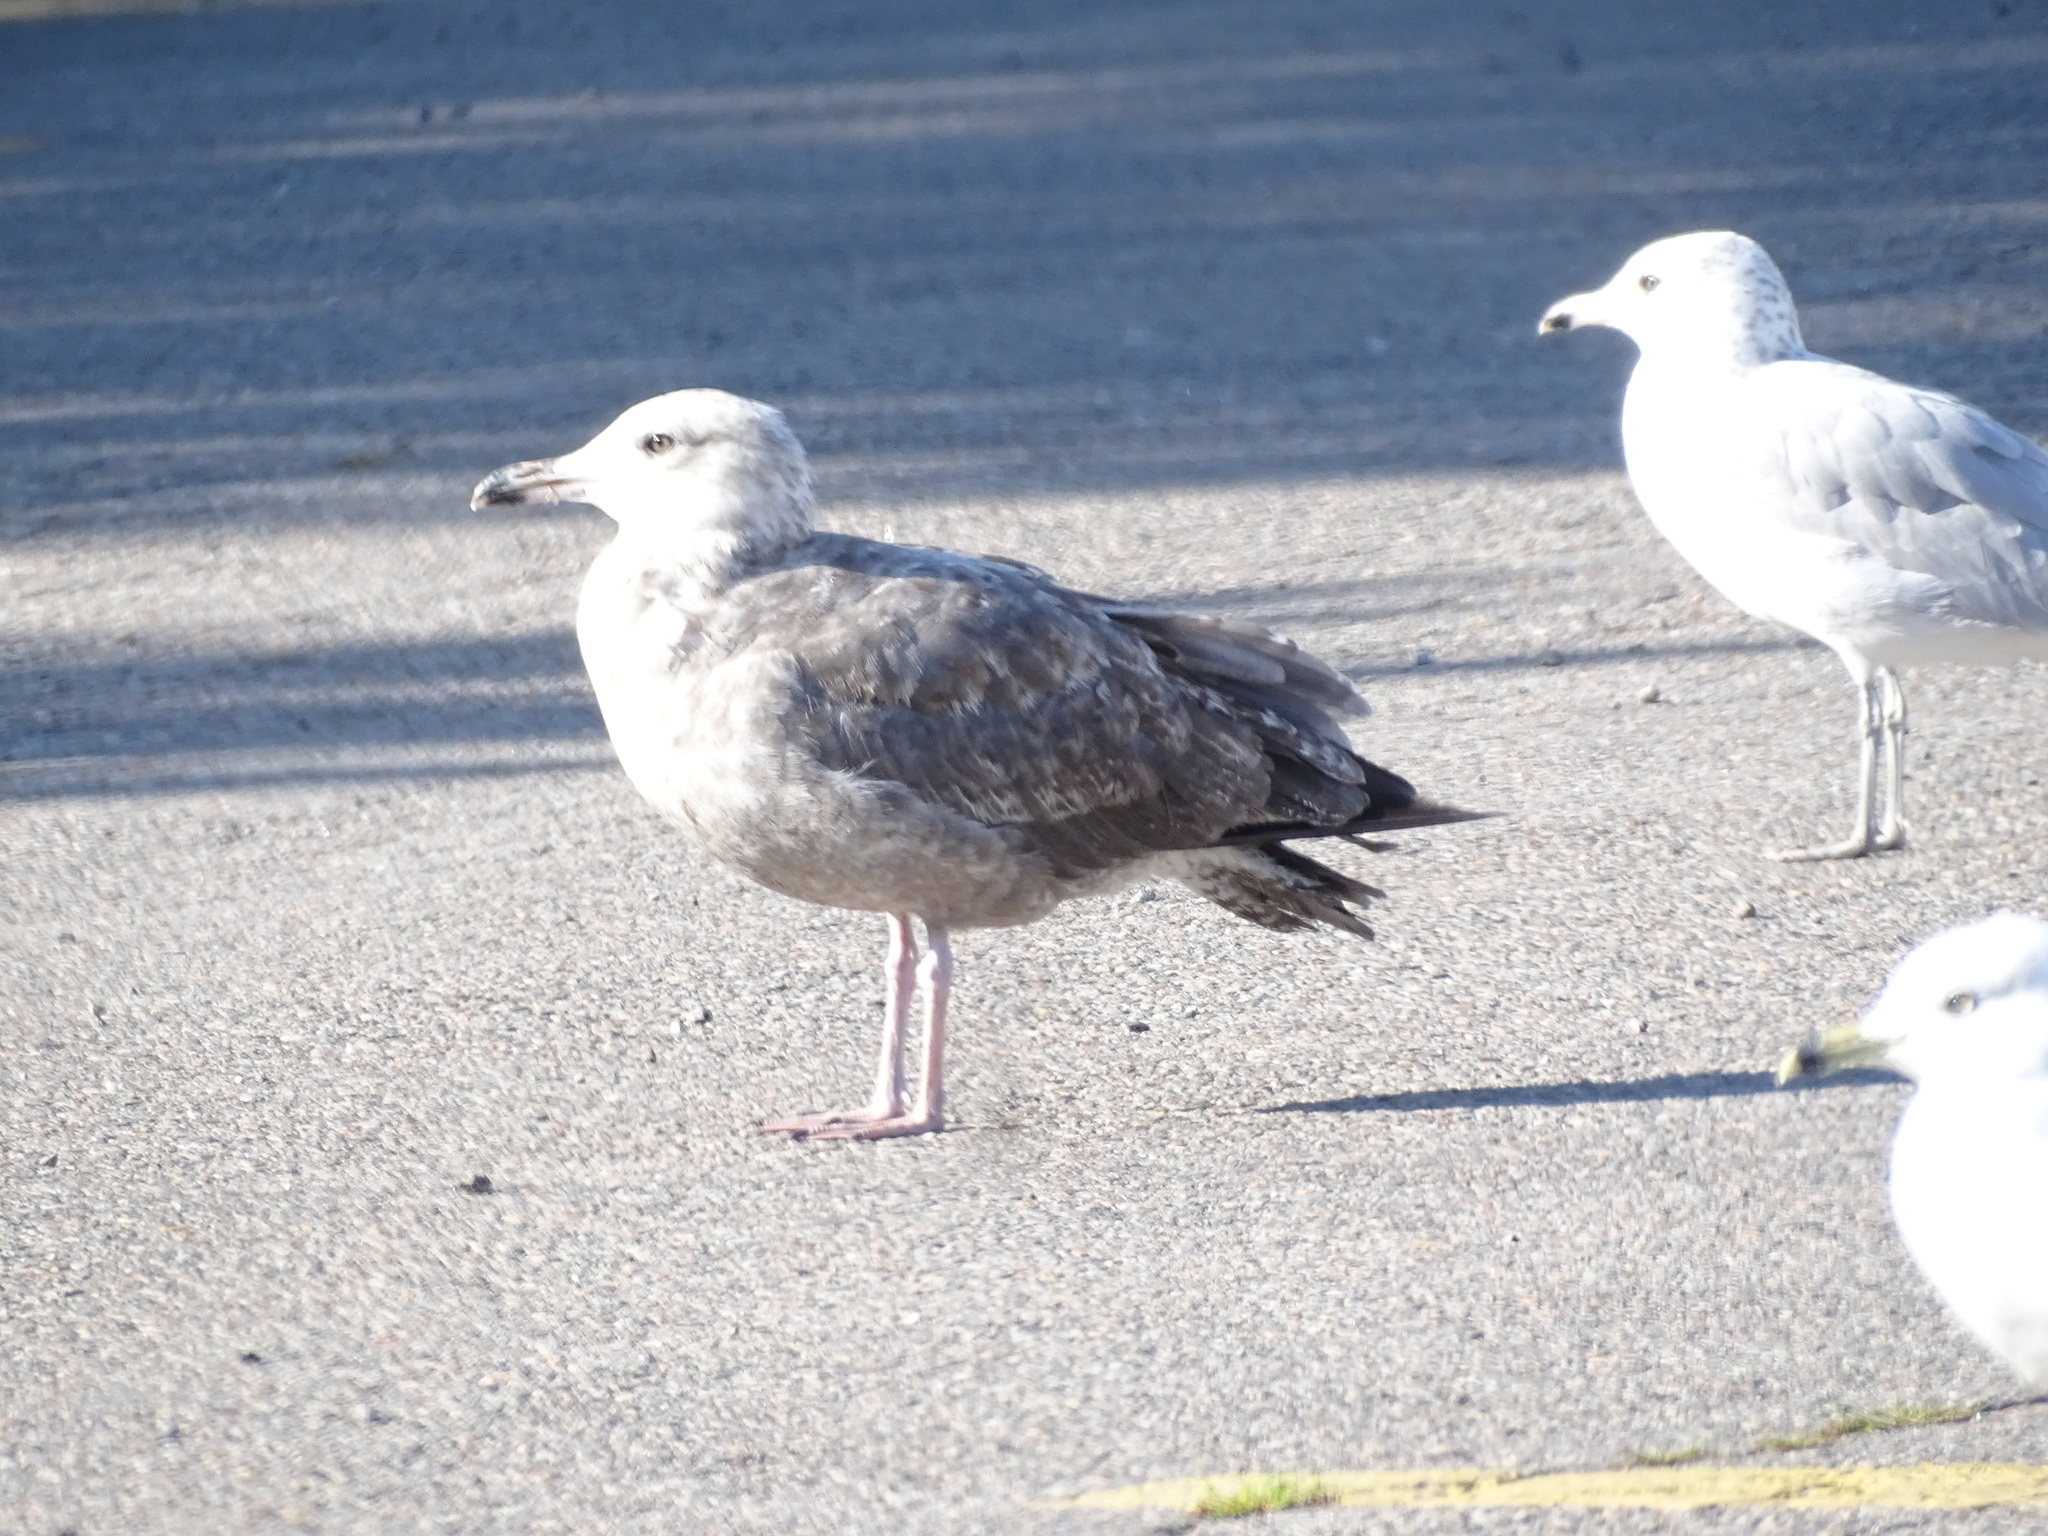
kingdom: Animalia
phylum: Chordata
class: Aves
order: Charadriiformes
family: Laridae
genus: Larus
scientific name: Larus argentatus
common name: Herring gull
